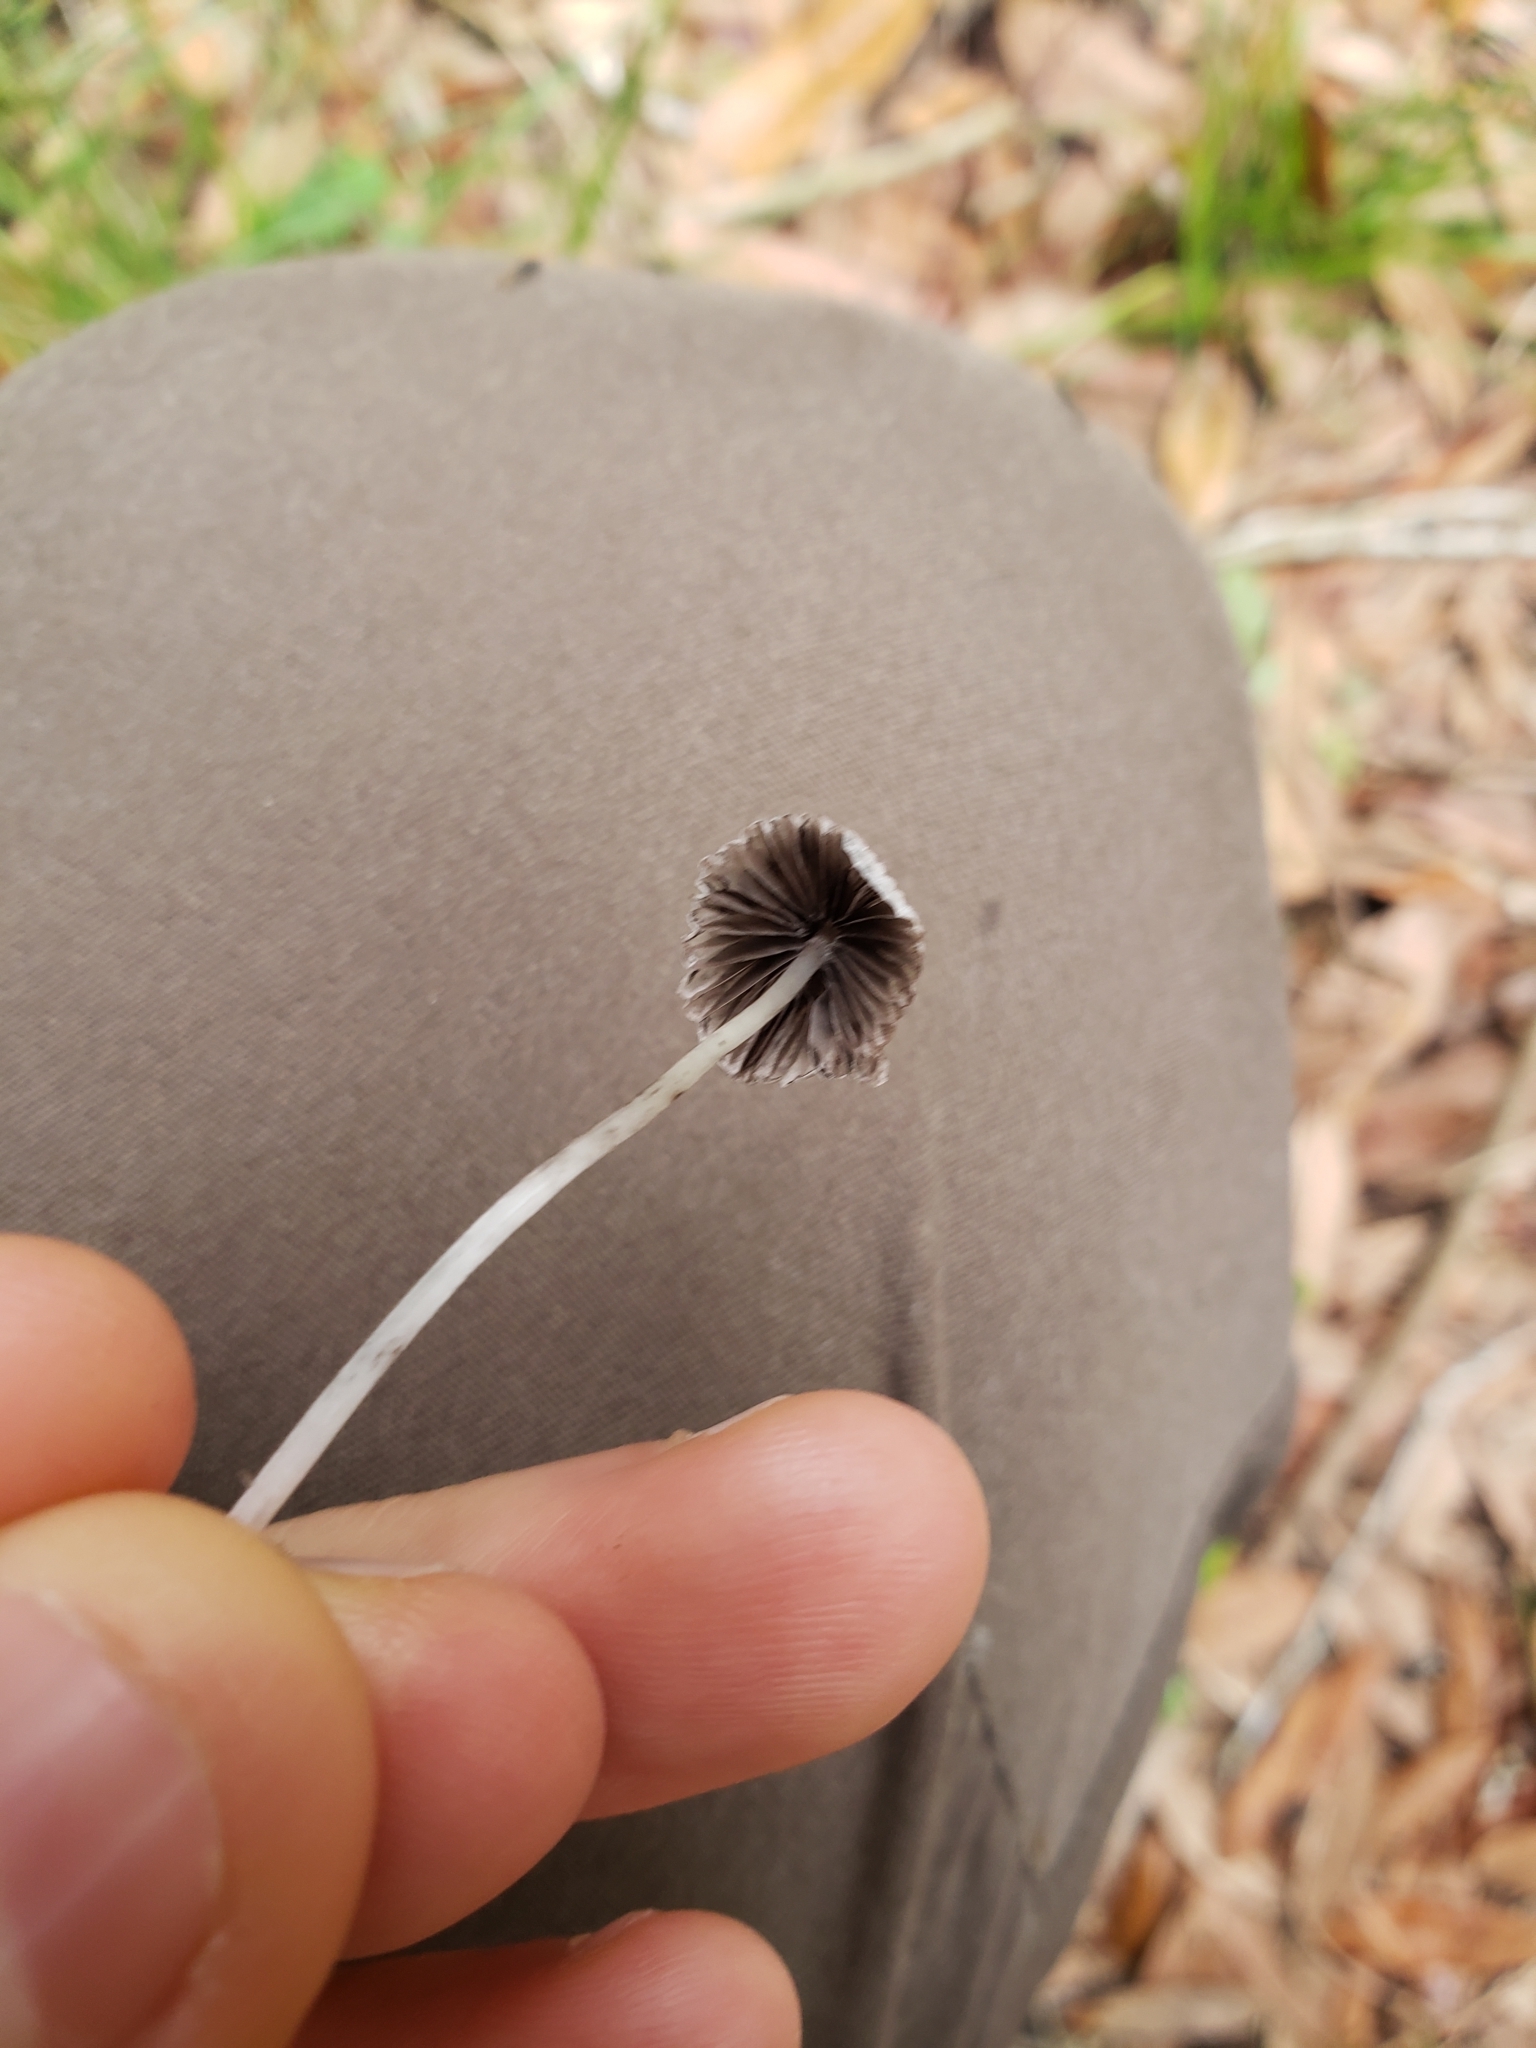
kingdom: Fungi
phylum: Basidiomycota
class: Agaricomycetes
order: Agaricales
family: Psathyrellaceae
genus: Coprinellus
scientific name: Coprinellus disseminatus
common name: Fairies' bonnets
